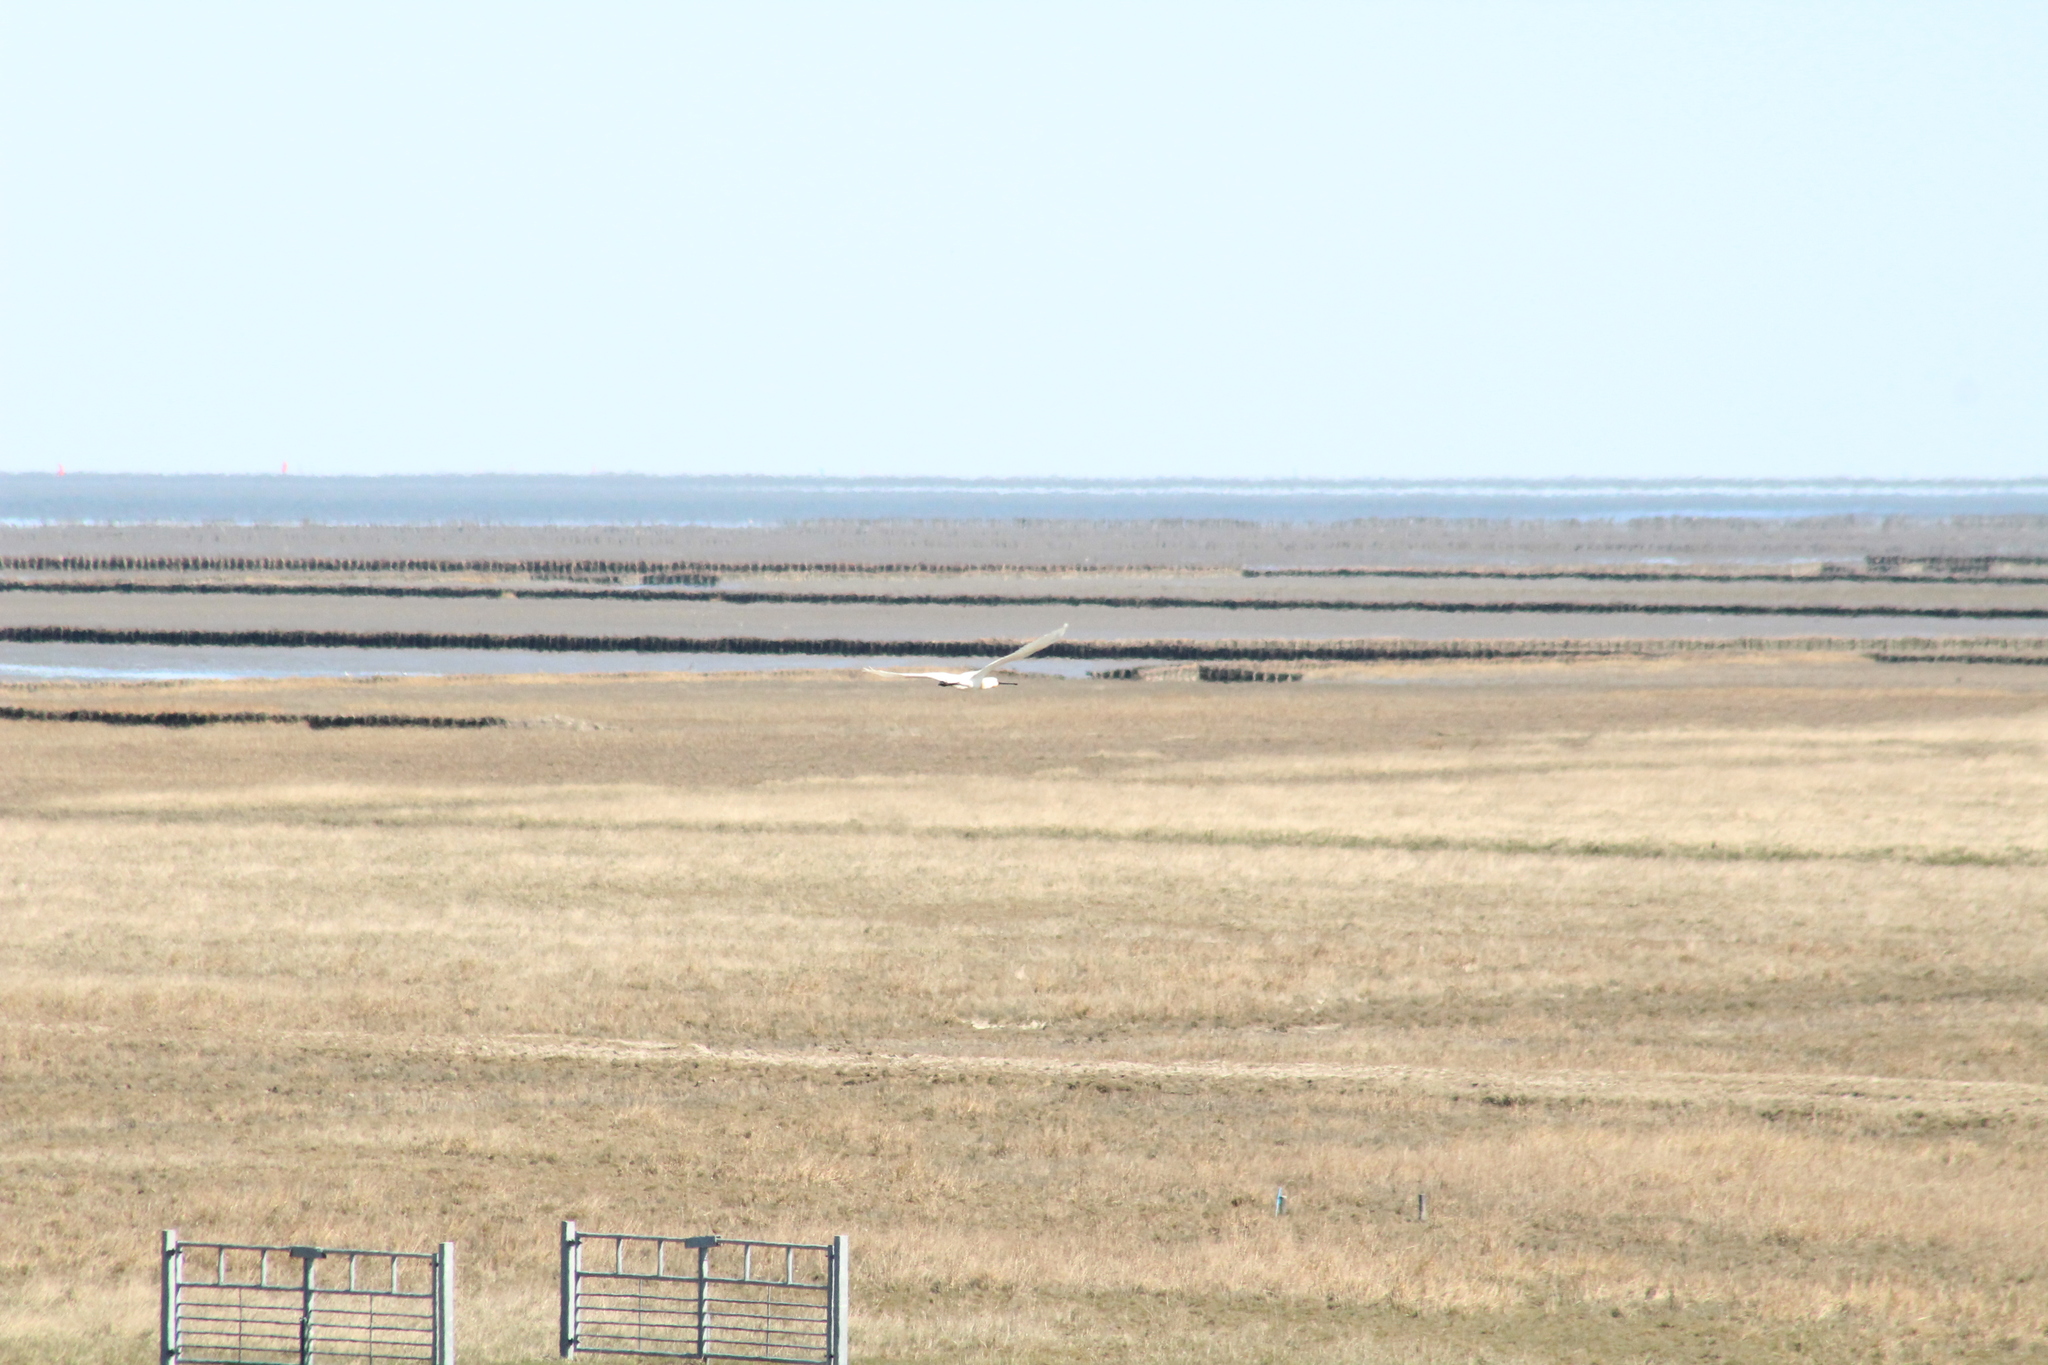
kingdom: Animalia
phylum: Chordata
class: Aves
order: Pelecaniformes
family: Threskiornithidae
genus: Platalea
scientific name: Platalea leucorodia
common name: Eurasian spoonbill
